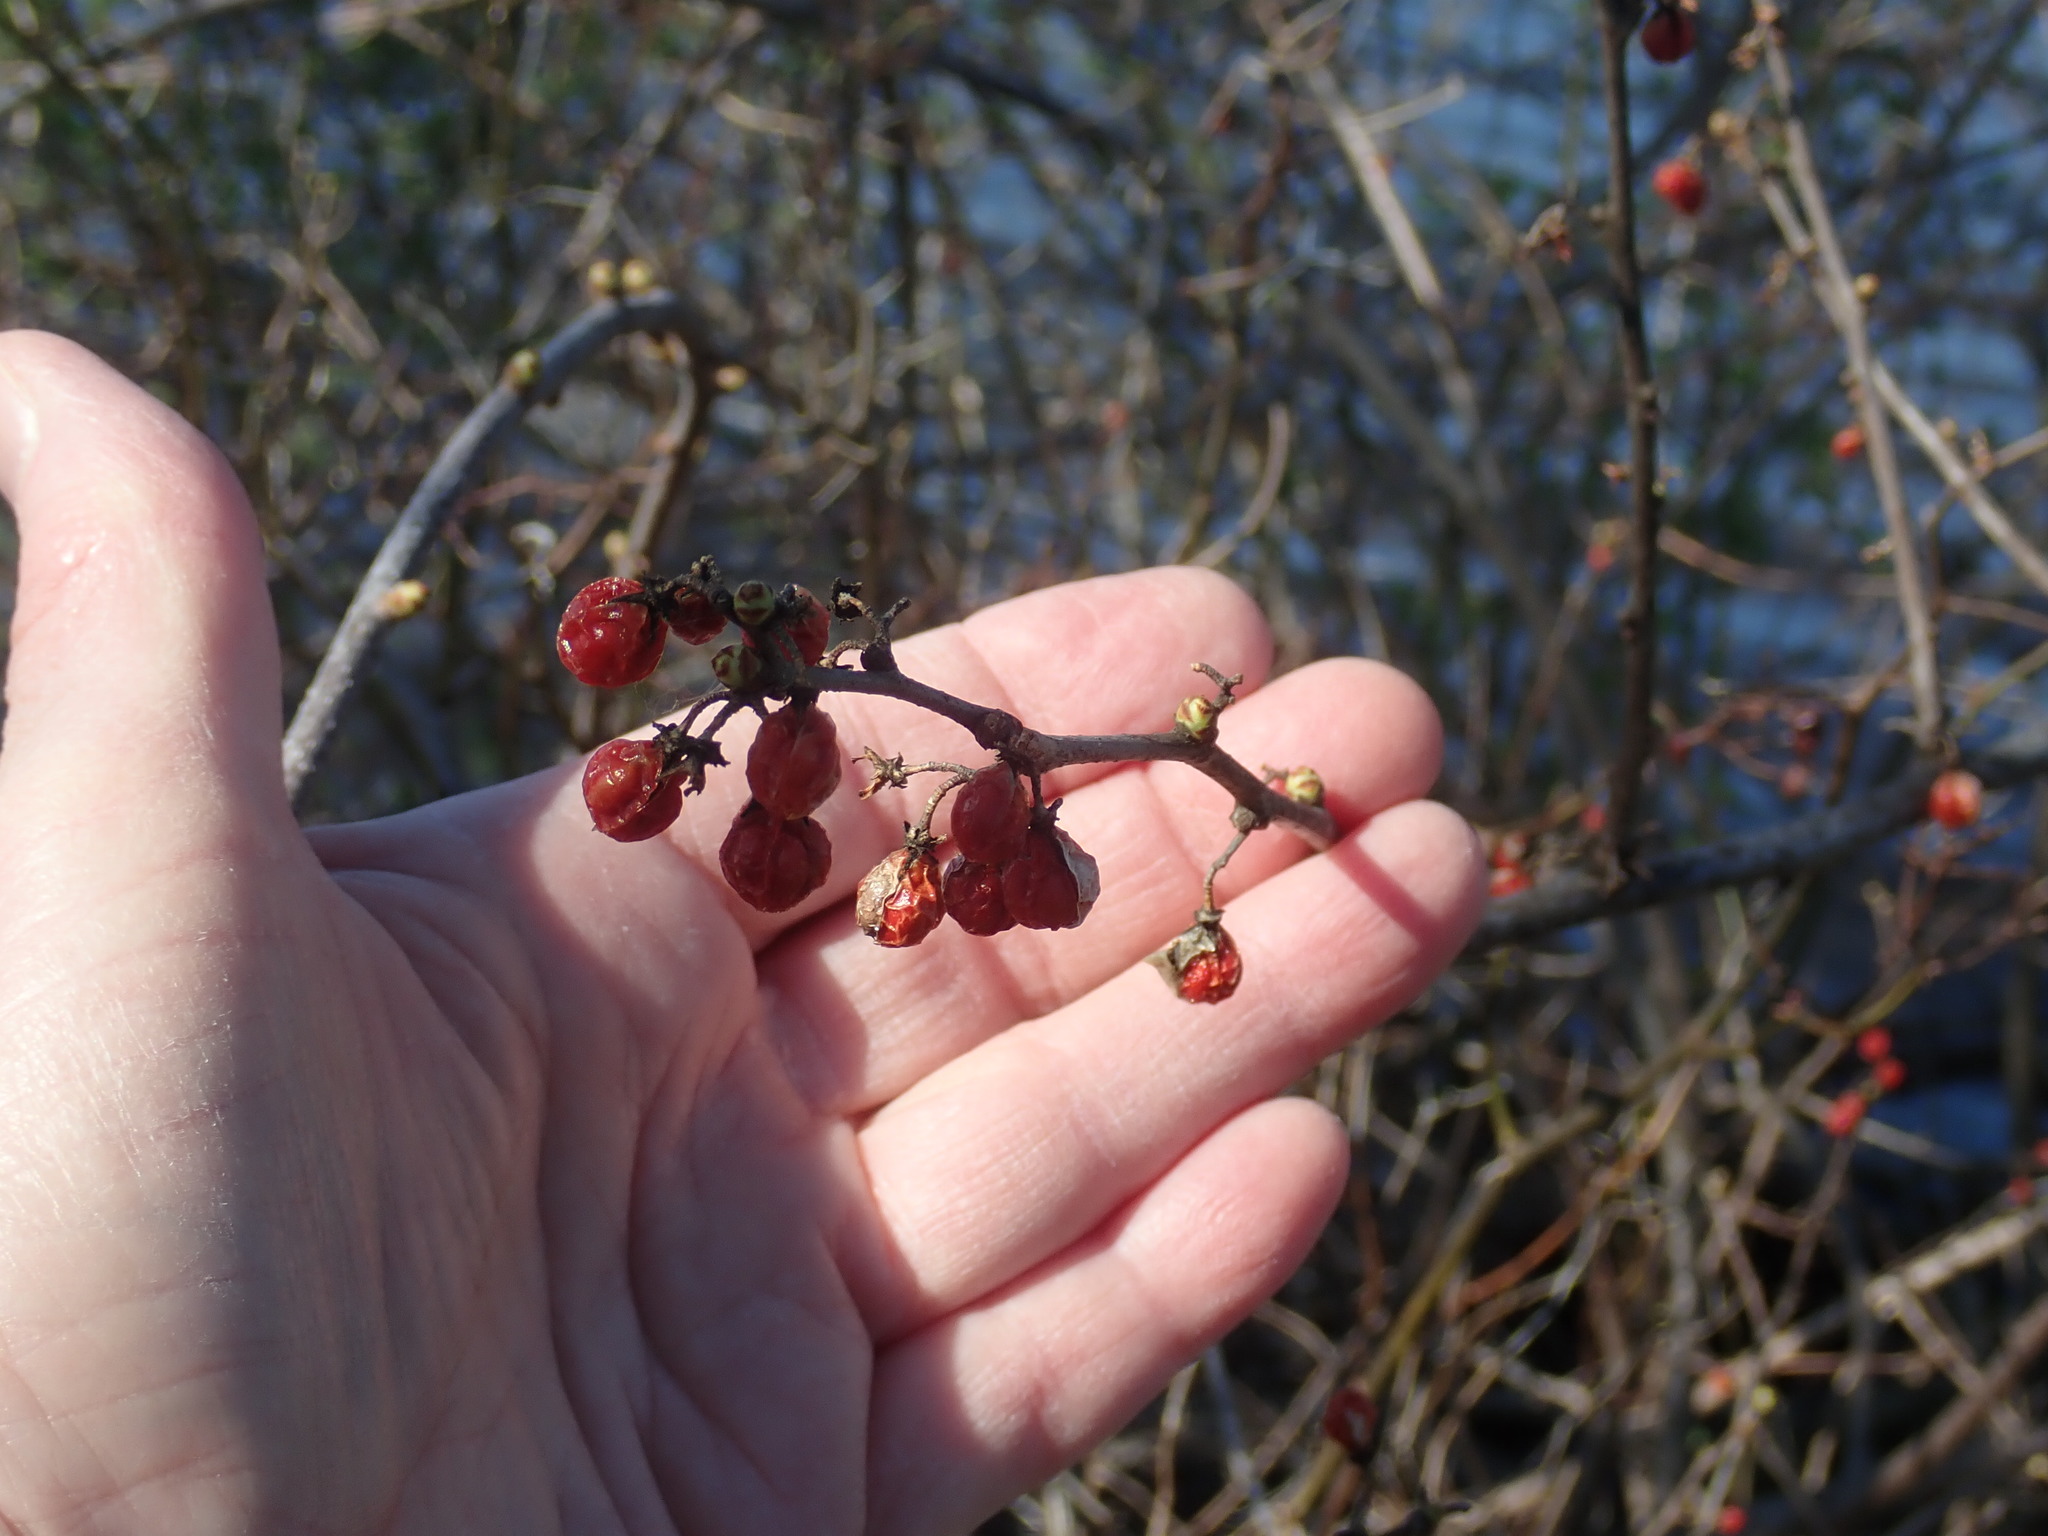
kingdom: Plantae
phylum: Tracheophyta
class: Magnoliopsida
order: Celastrales
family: Celastraceae
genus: Celastrus
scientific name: Celastrus orbiculatus
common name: Oriental bittersweet
